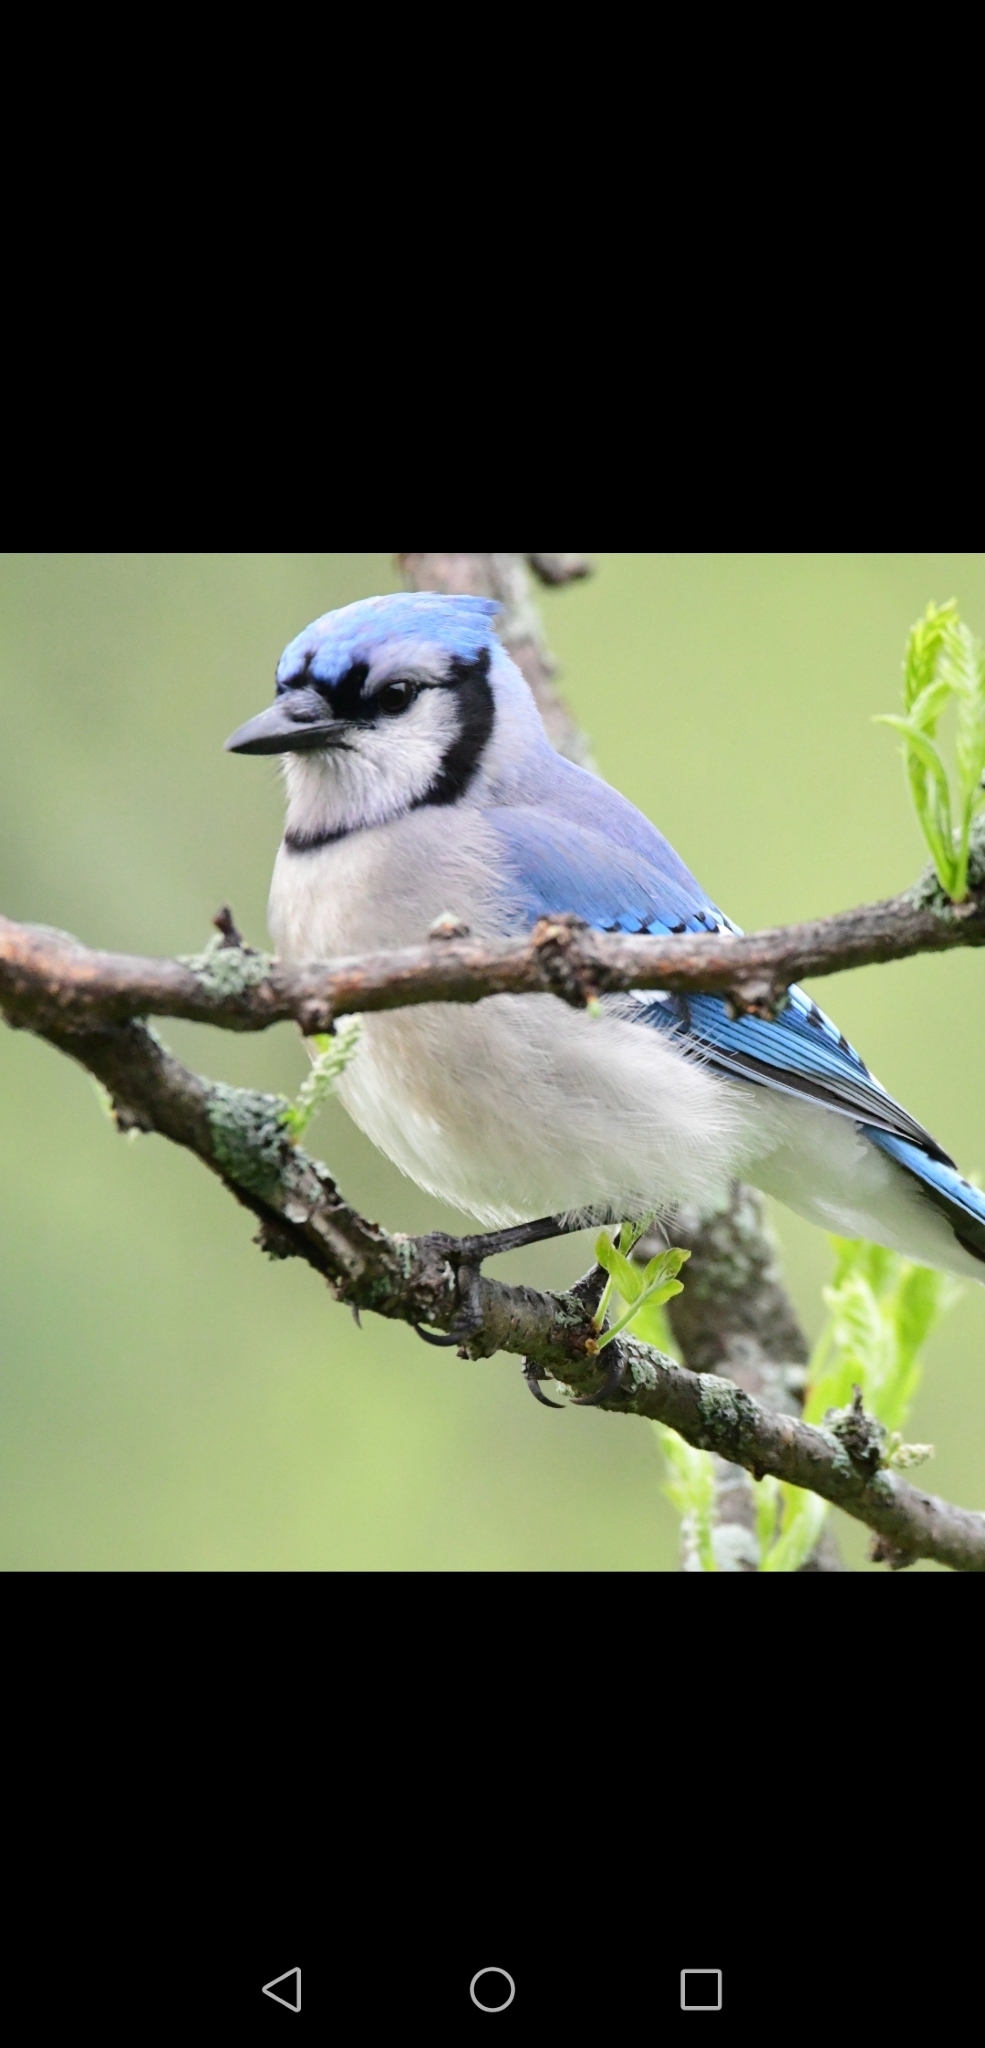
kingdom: Animalia
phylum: Chordata
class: Aves
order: Passeriformes
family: Corvidae
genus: Cyanocitta
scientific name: Cyanocitta cristata
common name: Blue jay
